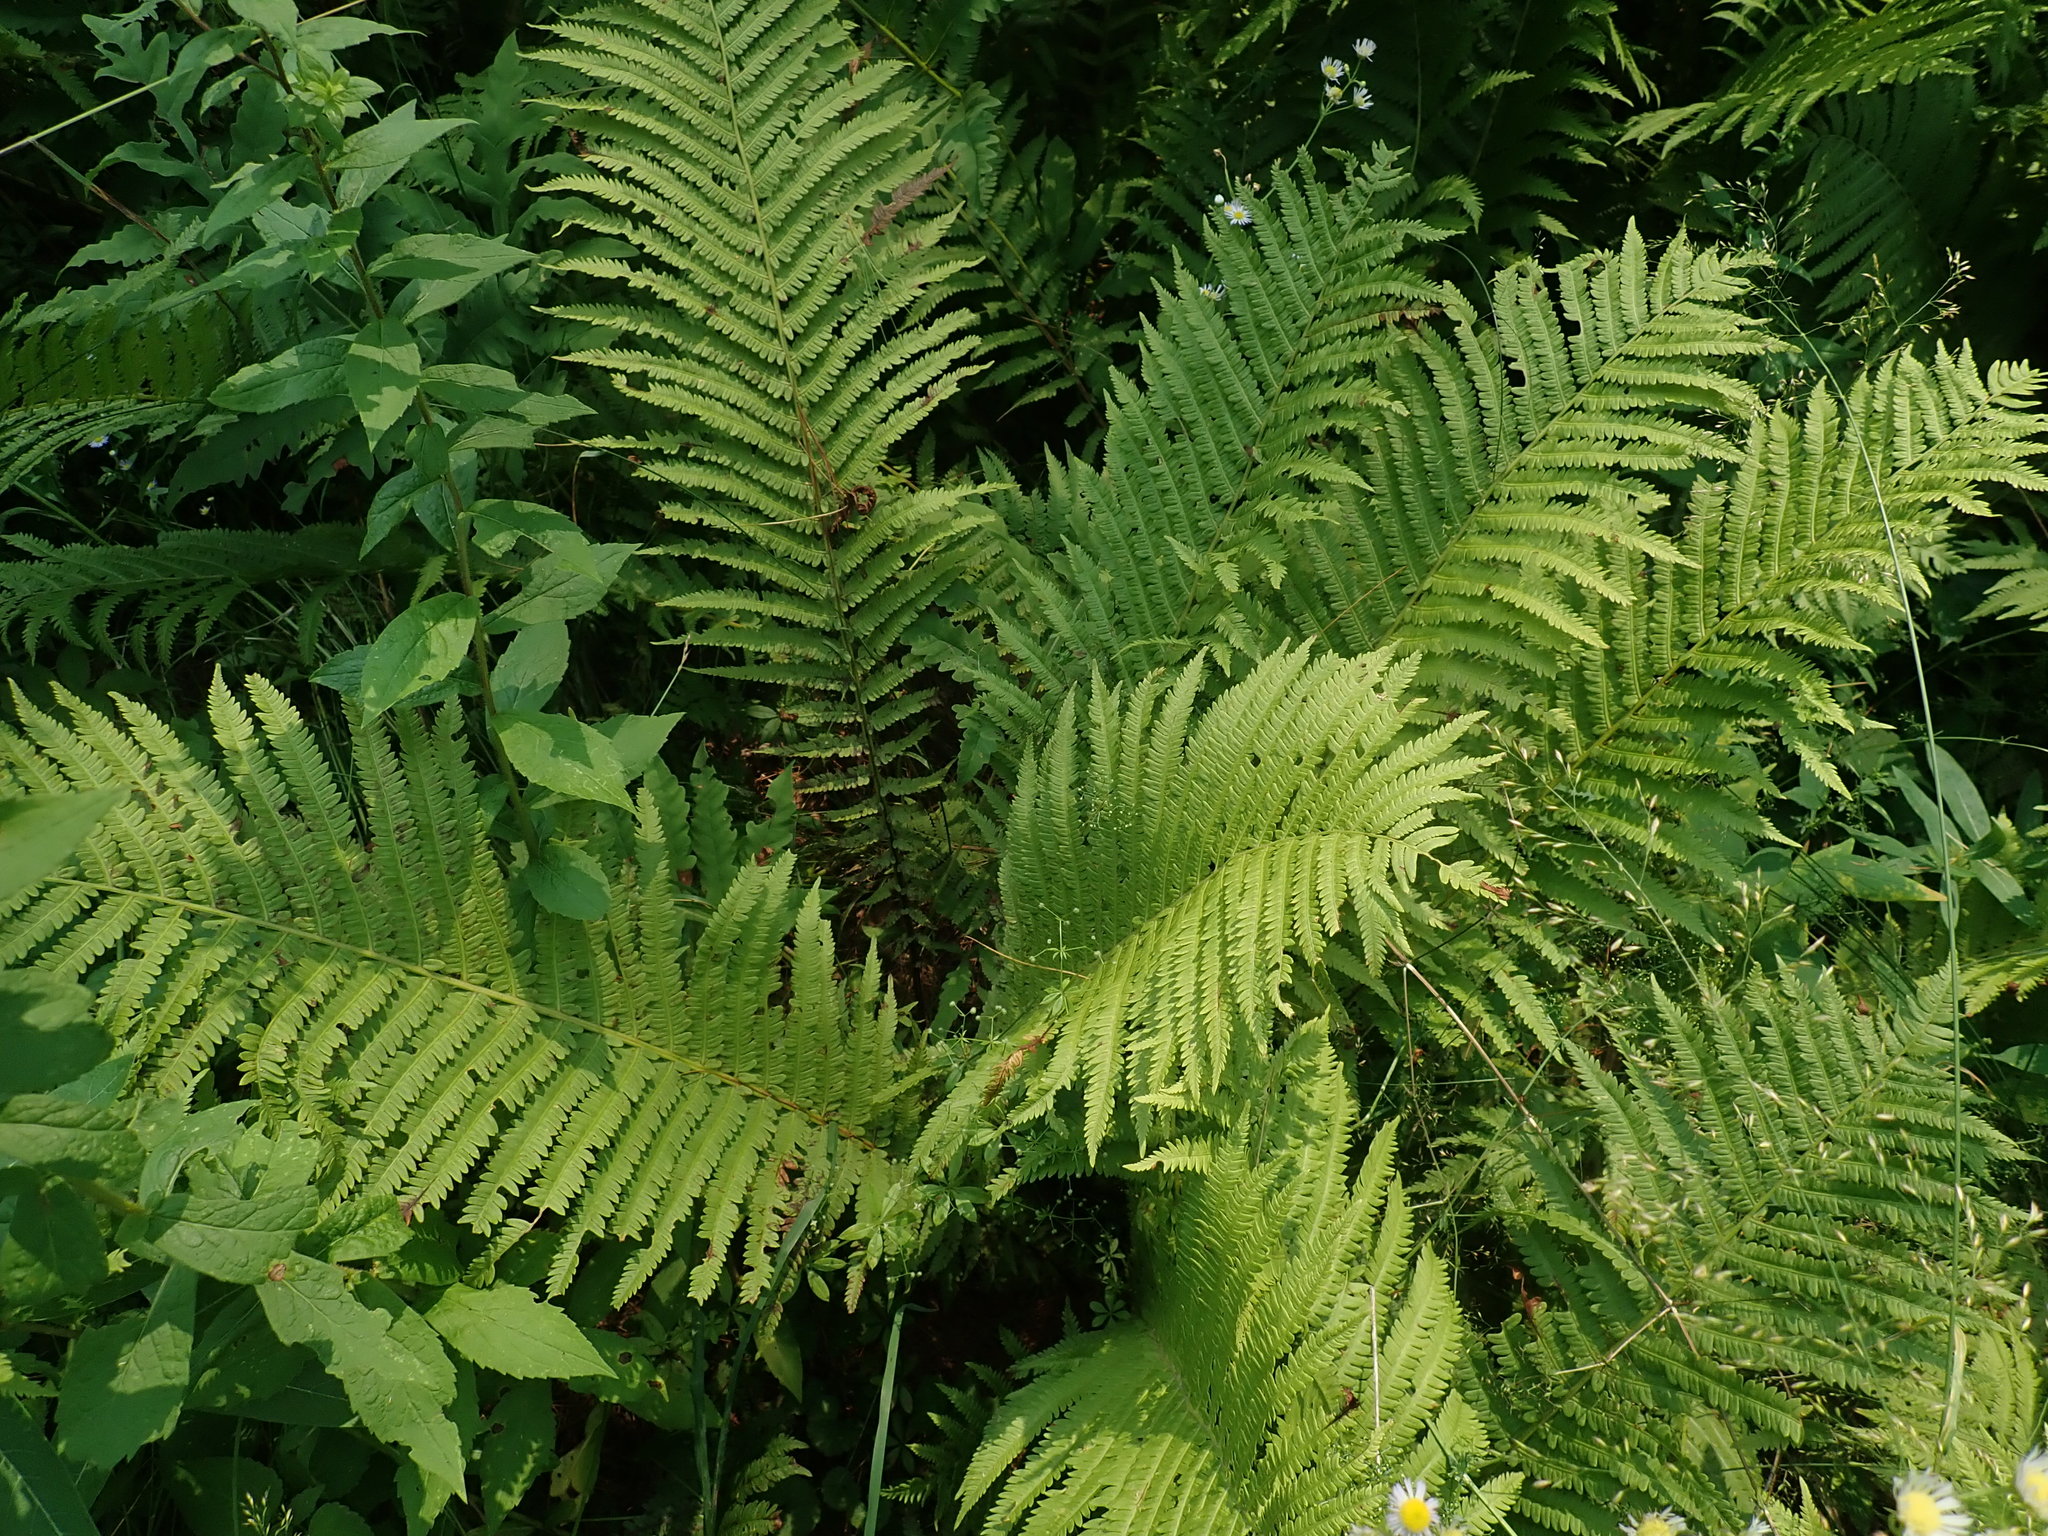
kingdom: Plantae
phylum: Tracheophyta
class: Polypodiopsida
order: Polypodiales
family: Onocleaceae
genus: Matteuccia
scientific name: Matteuccia struthiopteris
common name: Ostrich fern
